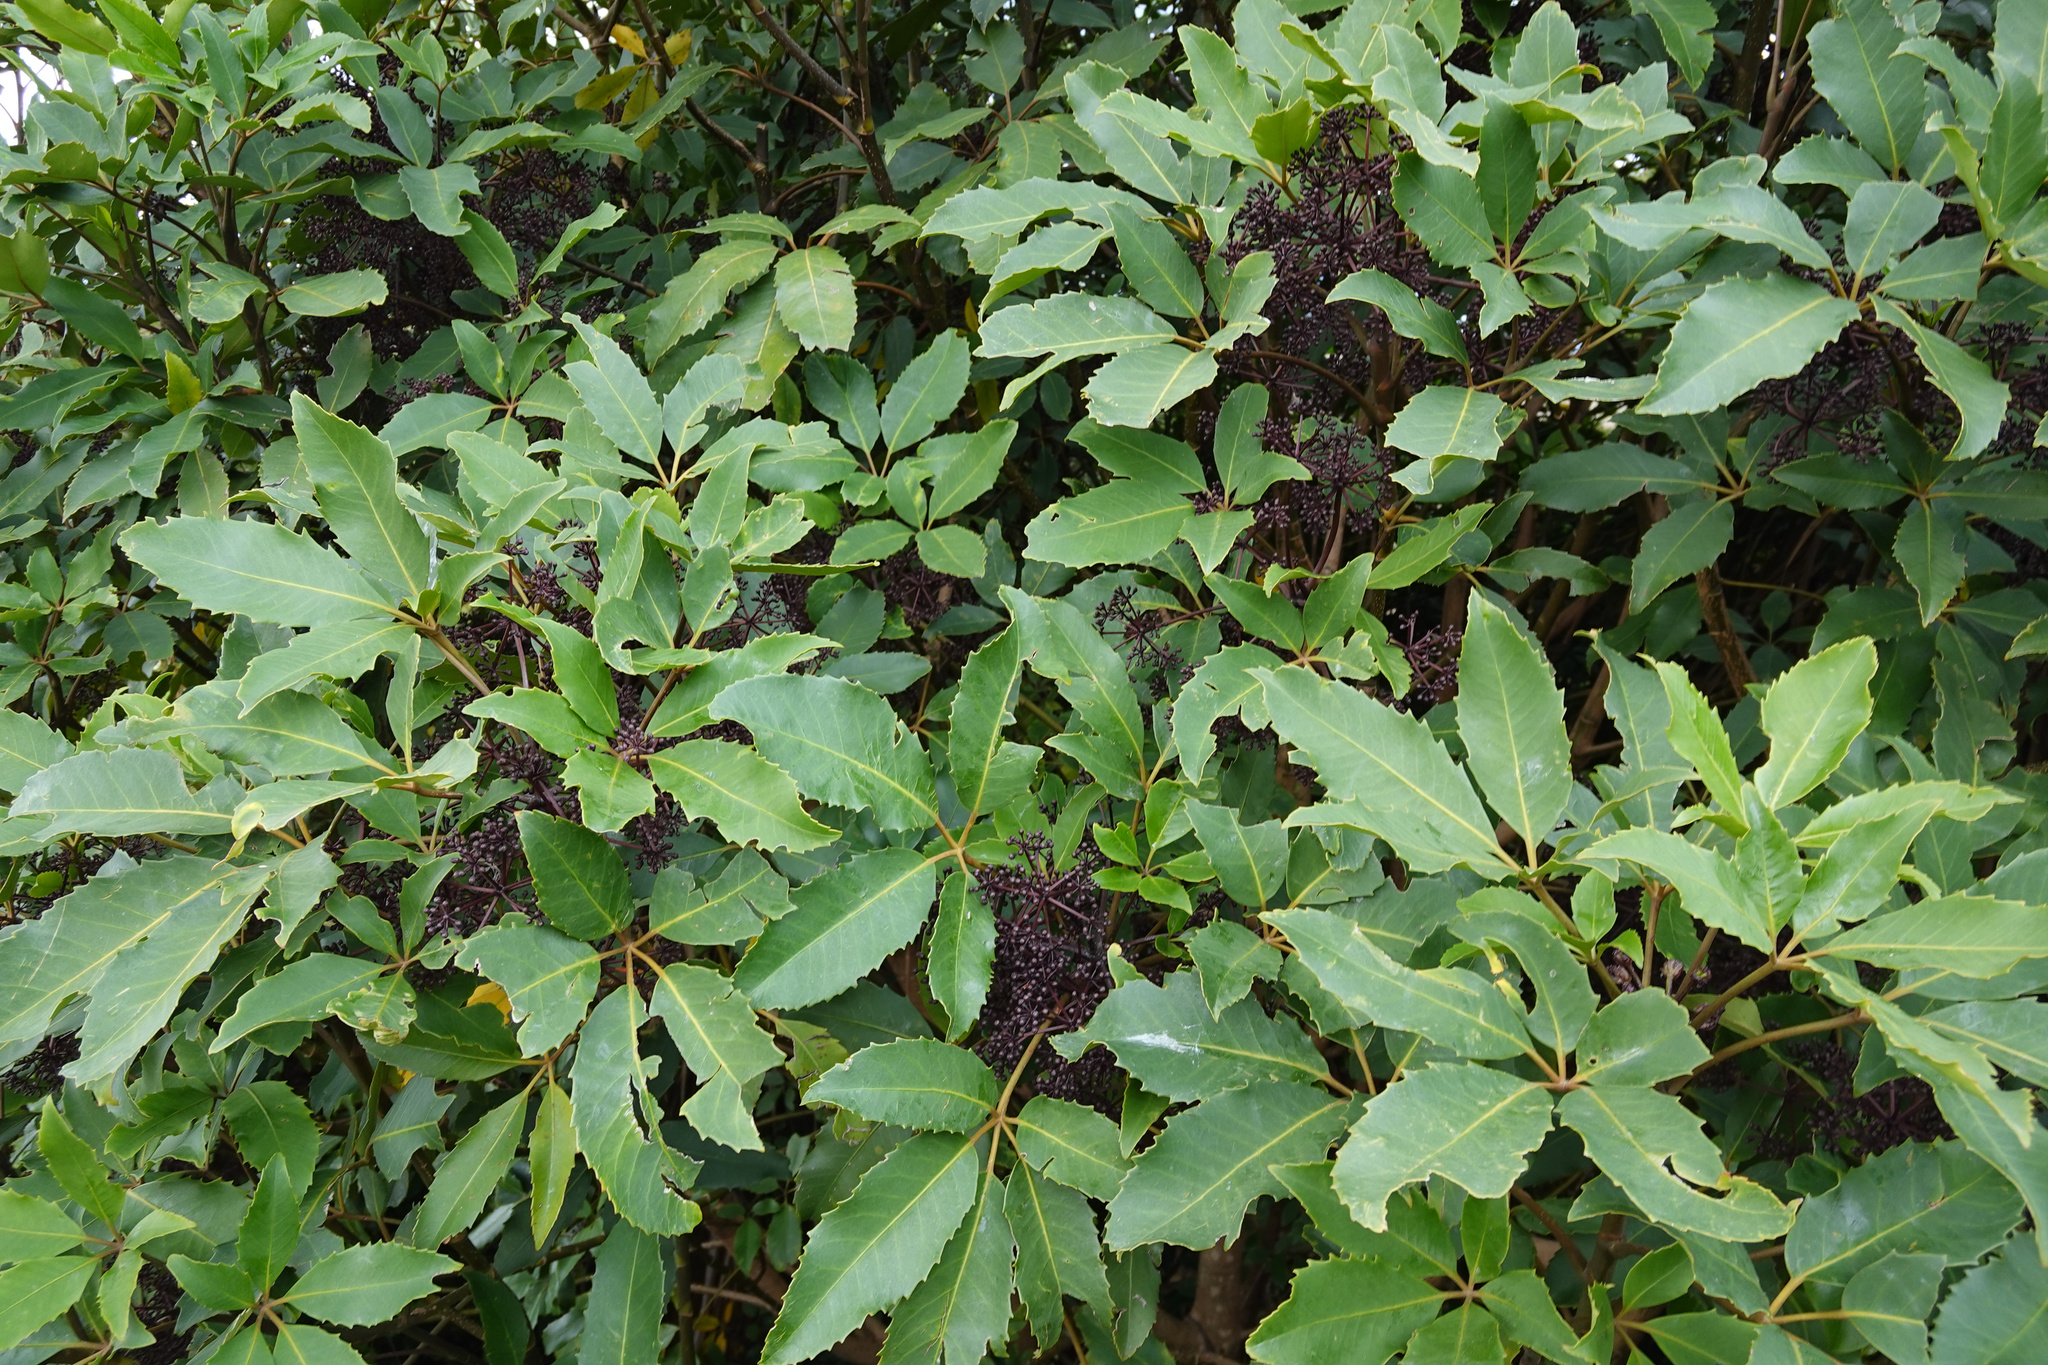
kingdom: Plantae
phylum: Tracheophyta
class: Magnoliopsida
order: Apiales
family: Araliaceae
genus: Neopanax
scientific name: Neopanax arboreus
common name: Five-fingers
